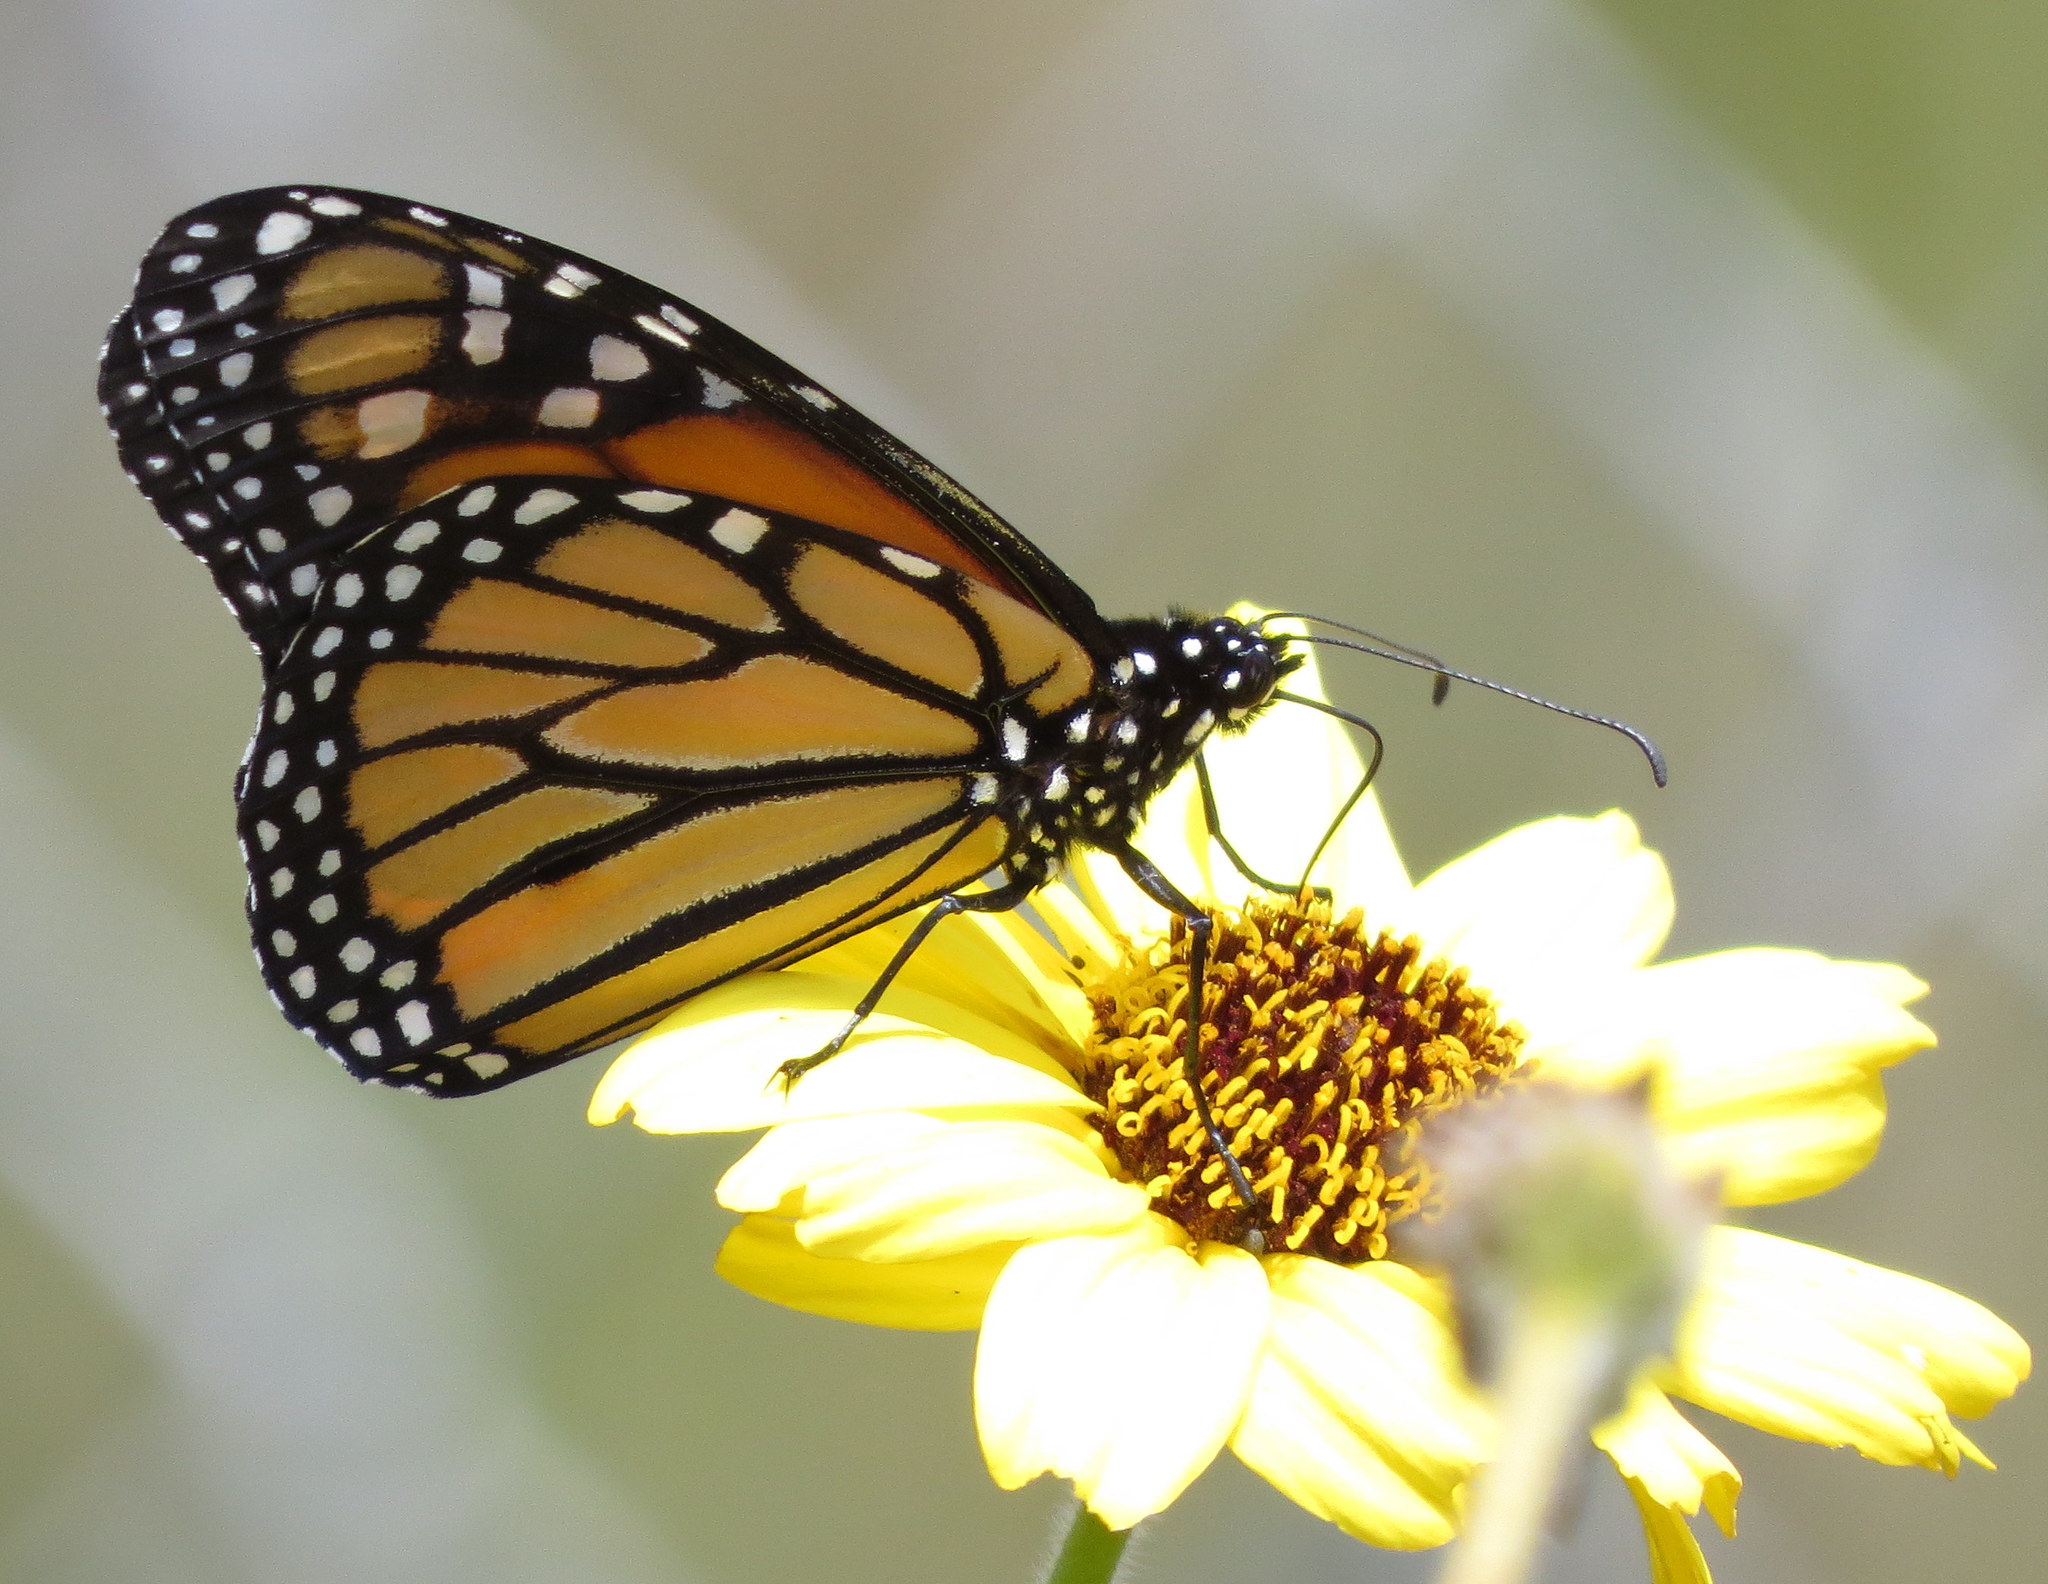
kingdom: Animalia
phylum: Arthropoda
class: Insecta
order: Lepidoptera
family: Nymphalidae
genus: Danaus
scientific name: Danaus plexippus
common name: Monarch
